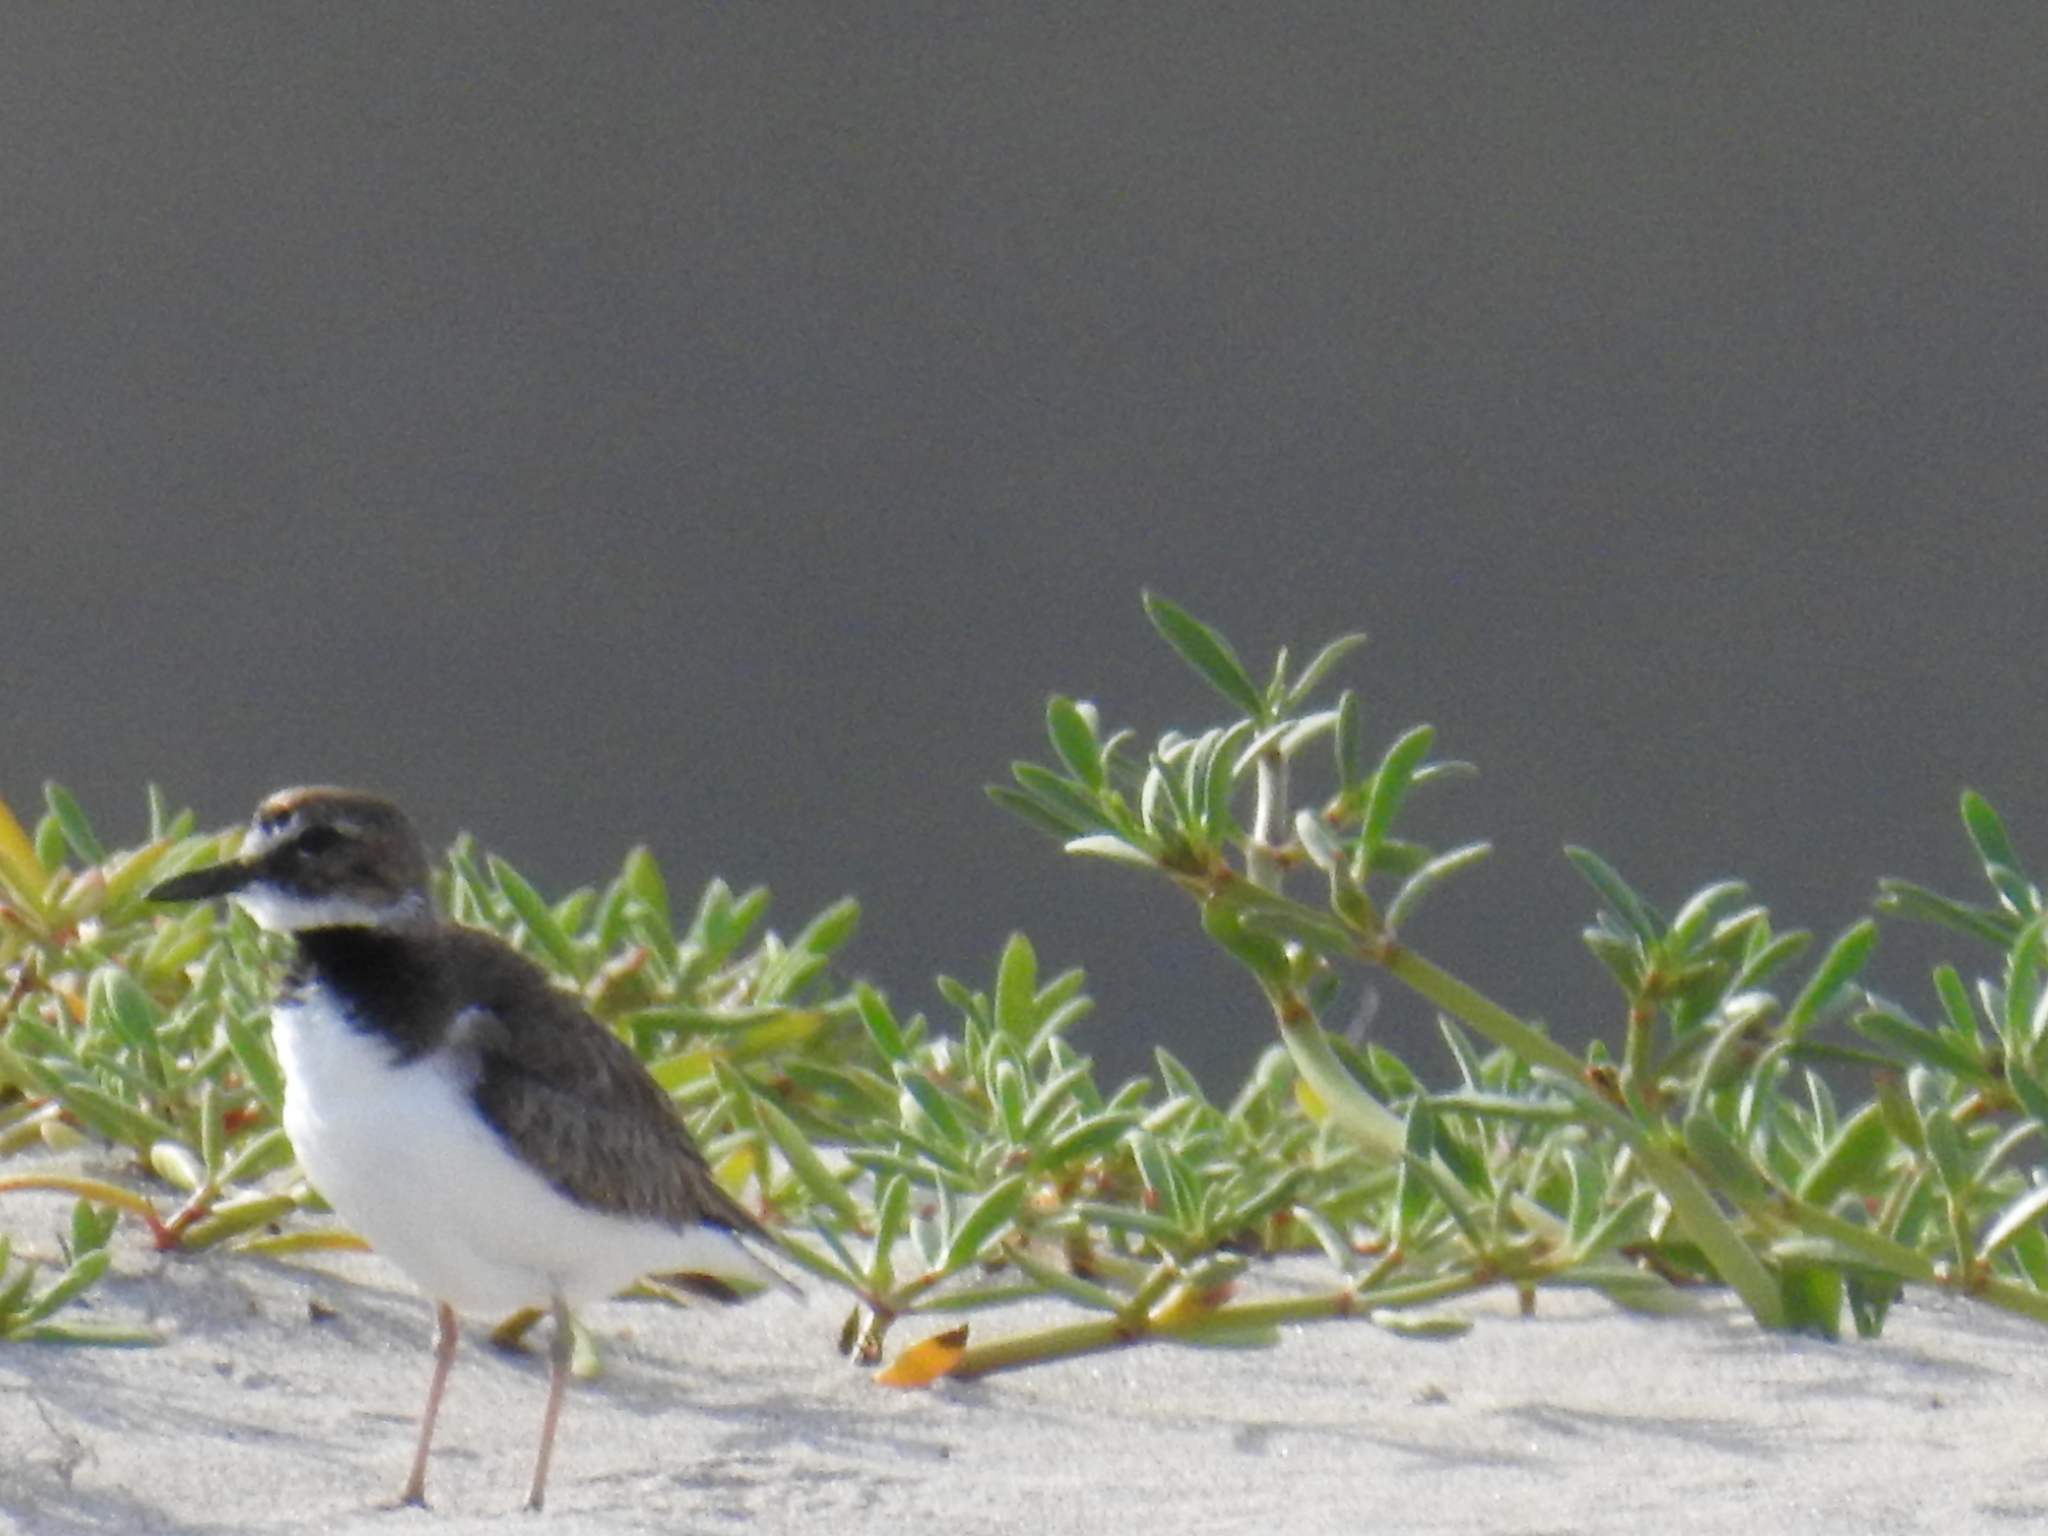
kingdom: Animalia
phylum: Chordata
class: Aves
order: Charadriiformes
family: Charadriidae
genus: Anarhynchus
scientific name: Anarhynchus
